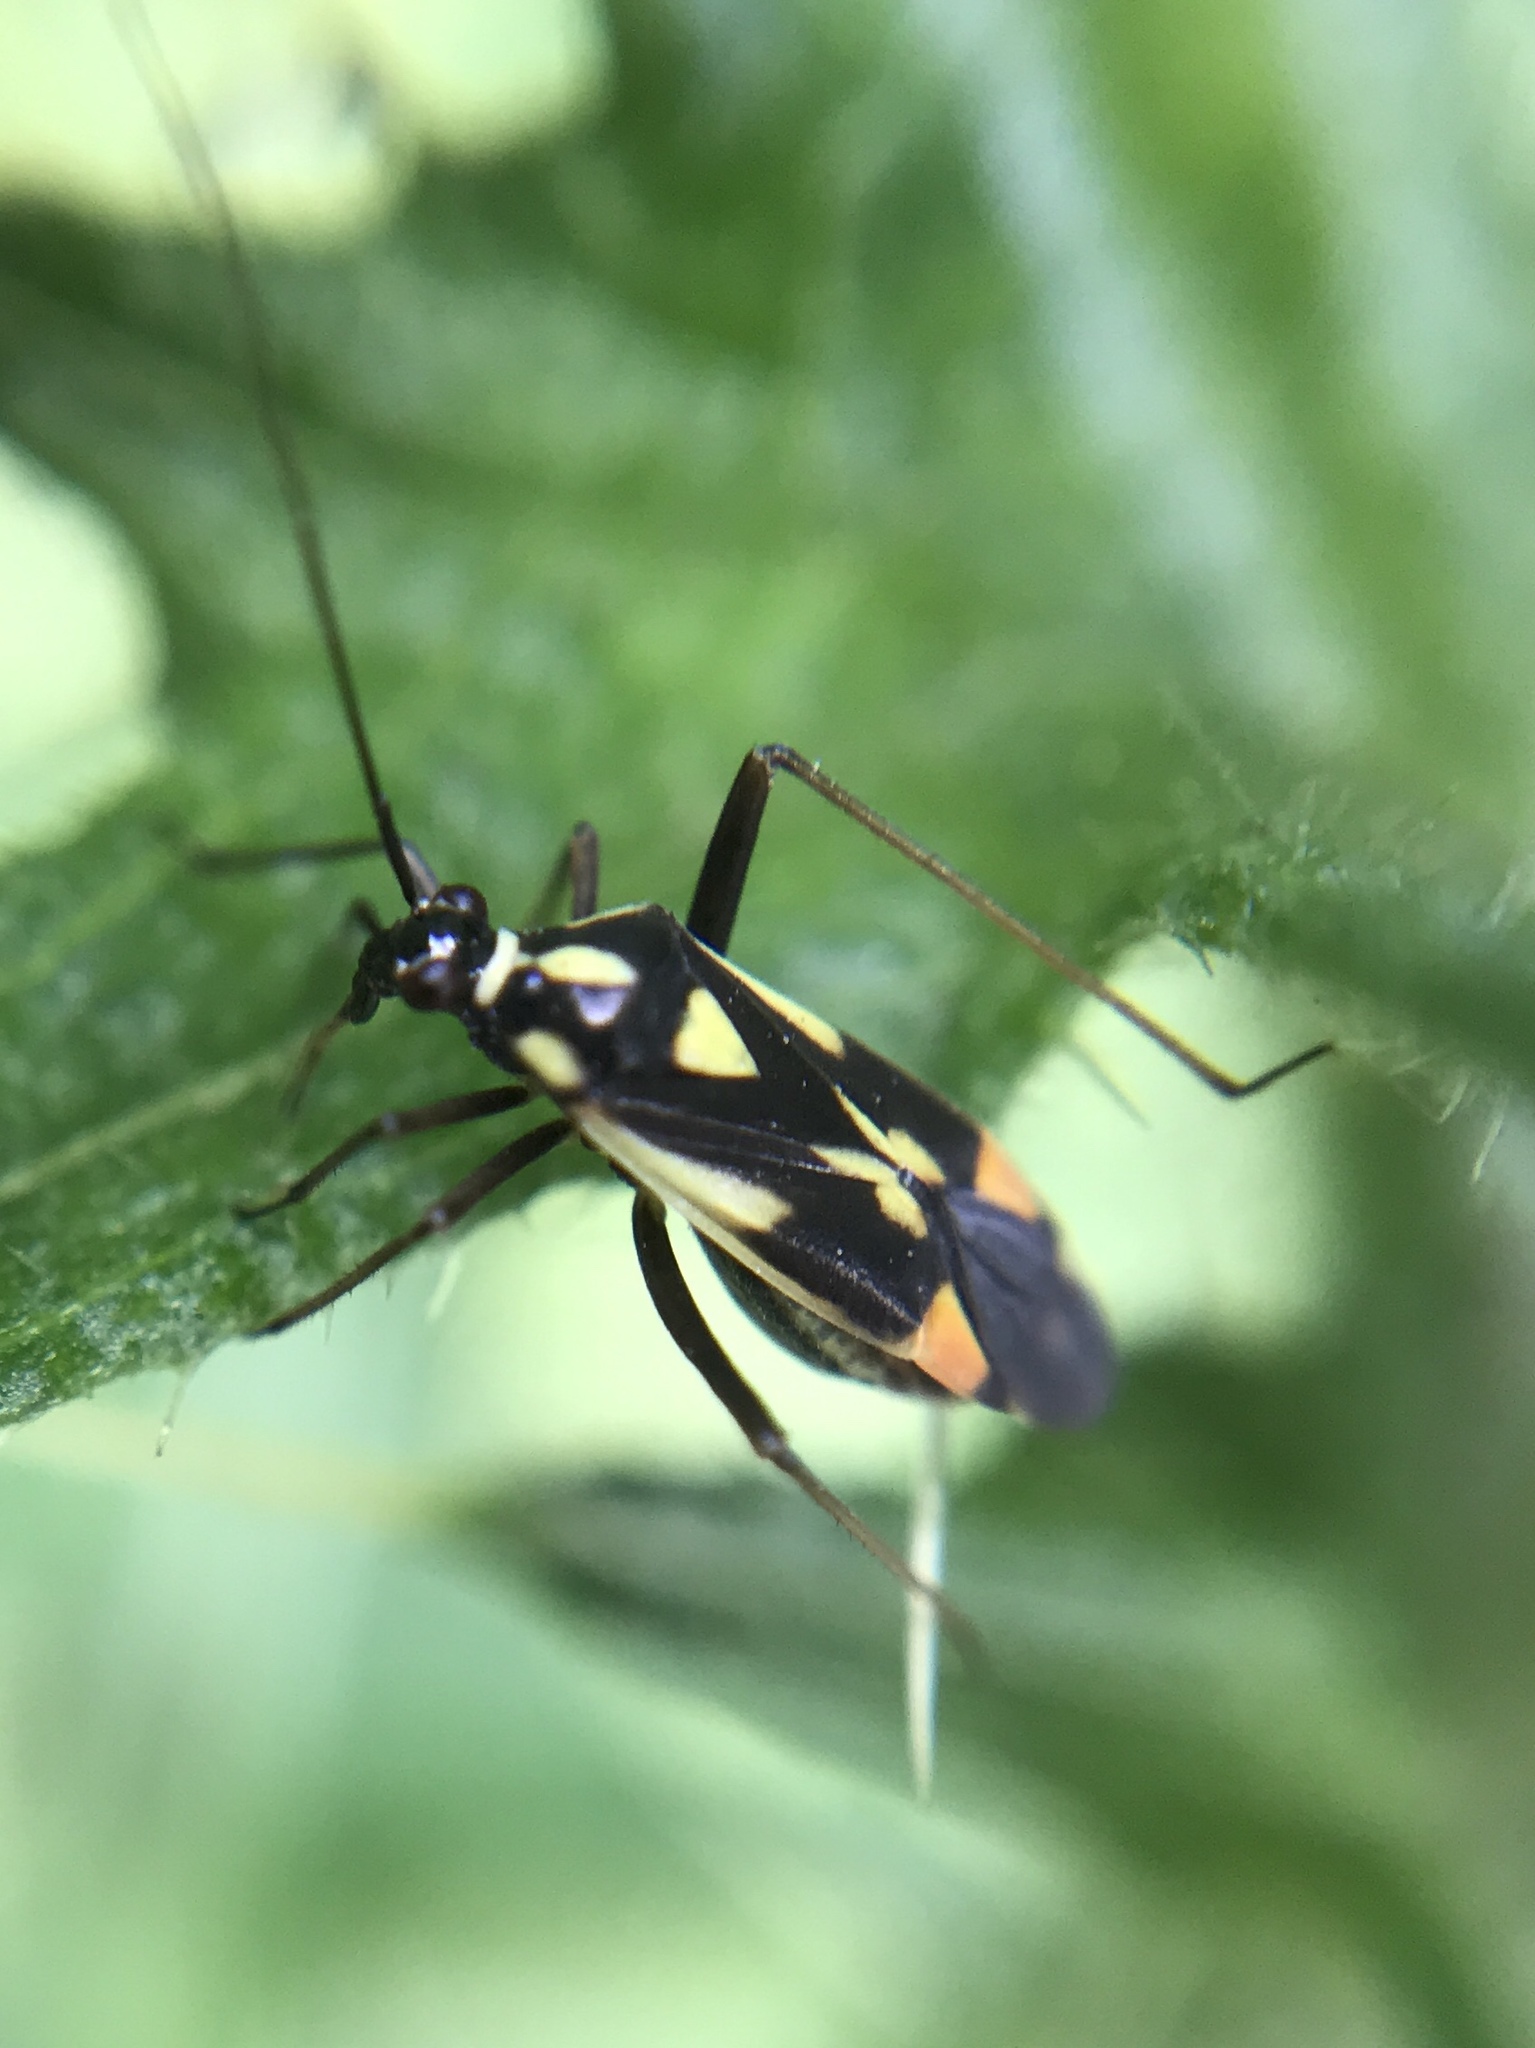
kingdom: Animalia
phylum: Arthropoda
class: Insecta
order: Hemiptera
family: Miridae
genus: Grypocoris
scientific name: Grypocoris stysi
